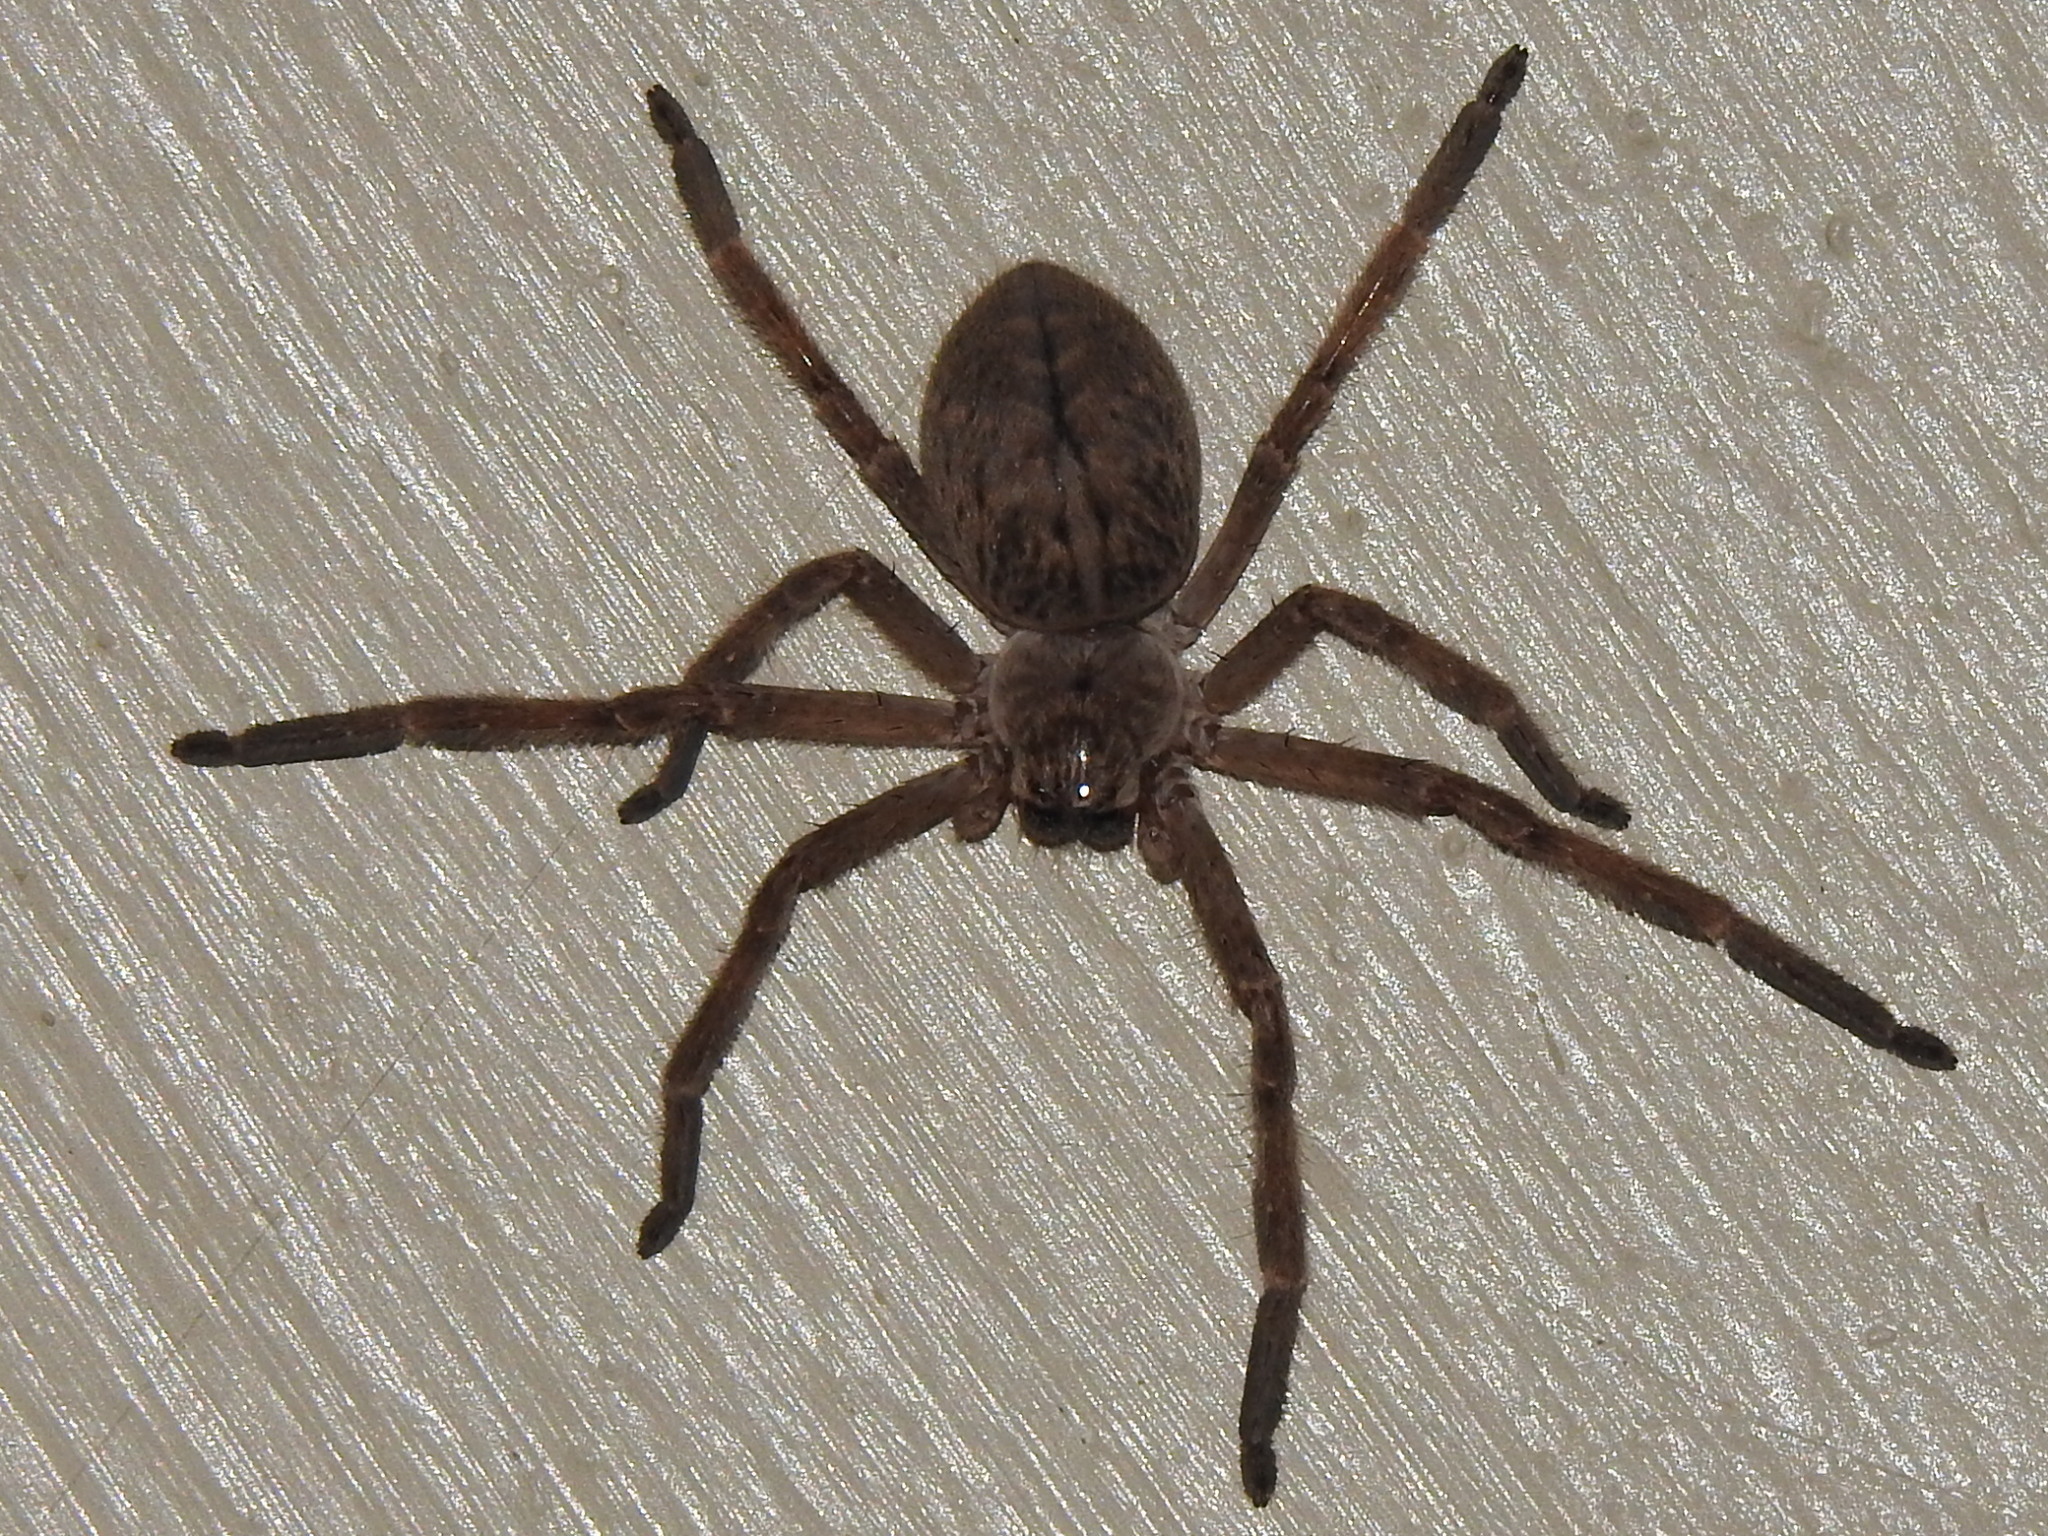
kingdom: Animalia
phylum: Arthropoda
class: Arachnida
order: Araneae
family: Sparassidae
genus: Olios
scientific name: Olios giganteus
